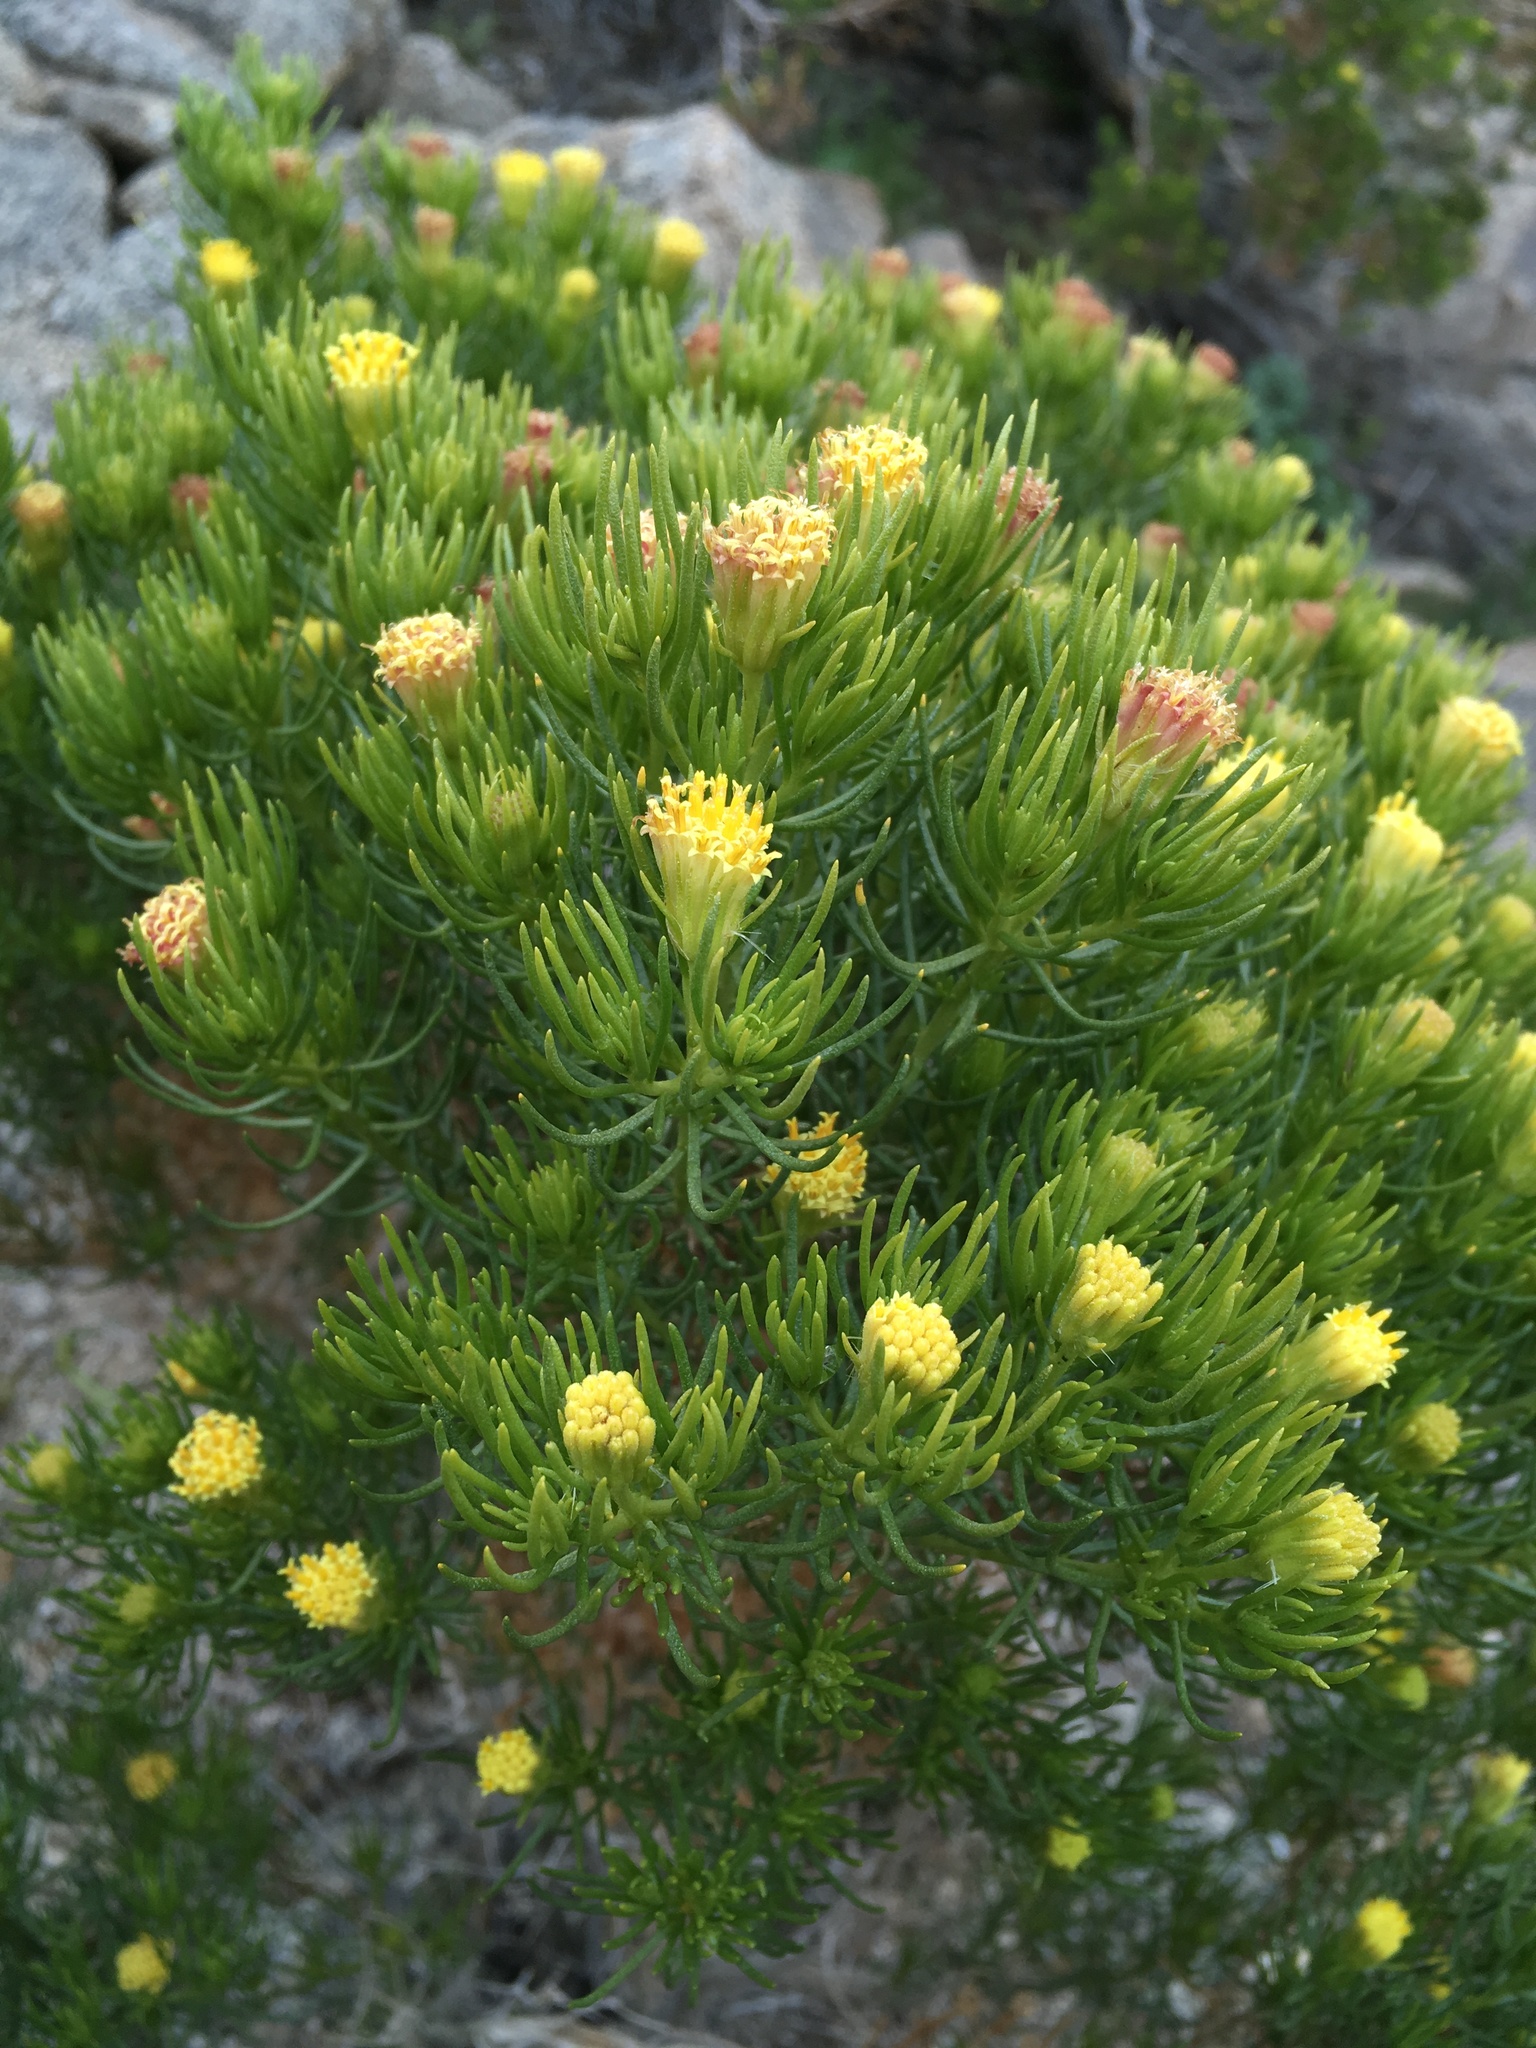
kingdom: Plantae
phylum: Tracheophyta
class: Magnoliopsida
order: Asterales
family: Asteraceae
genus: Peucephyllum
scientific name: Peucephyllum schottii
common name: Pygmy-cedar
